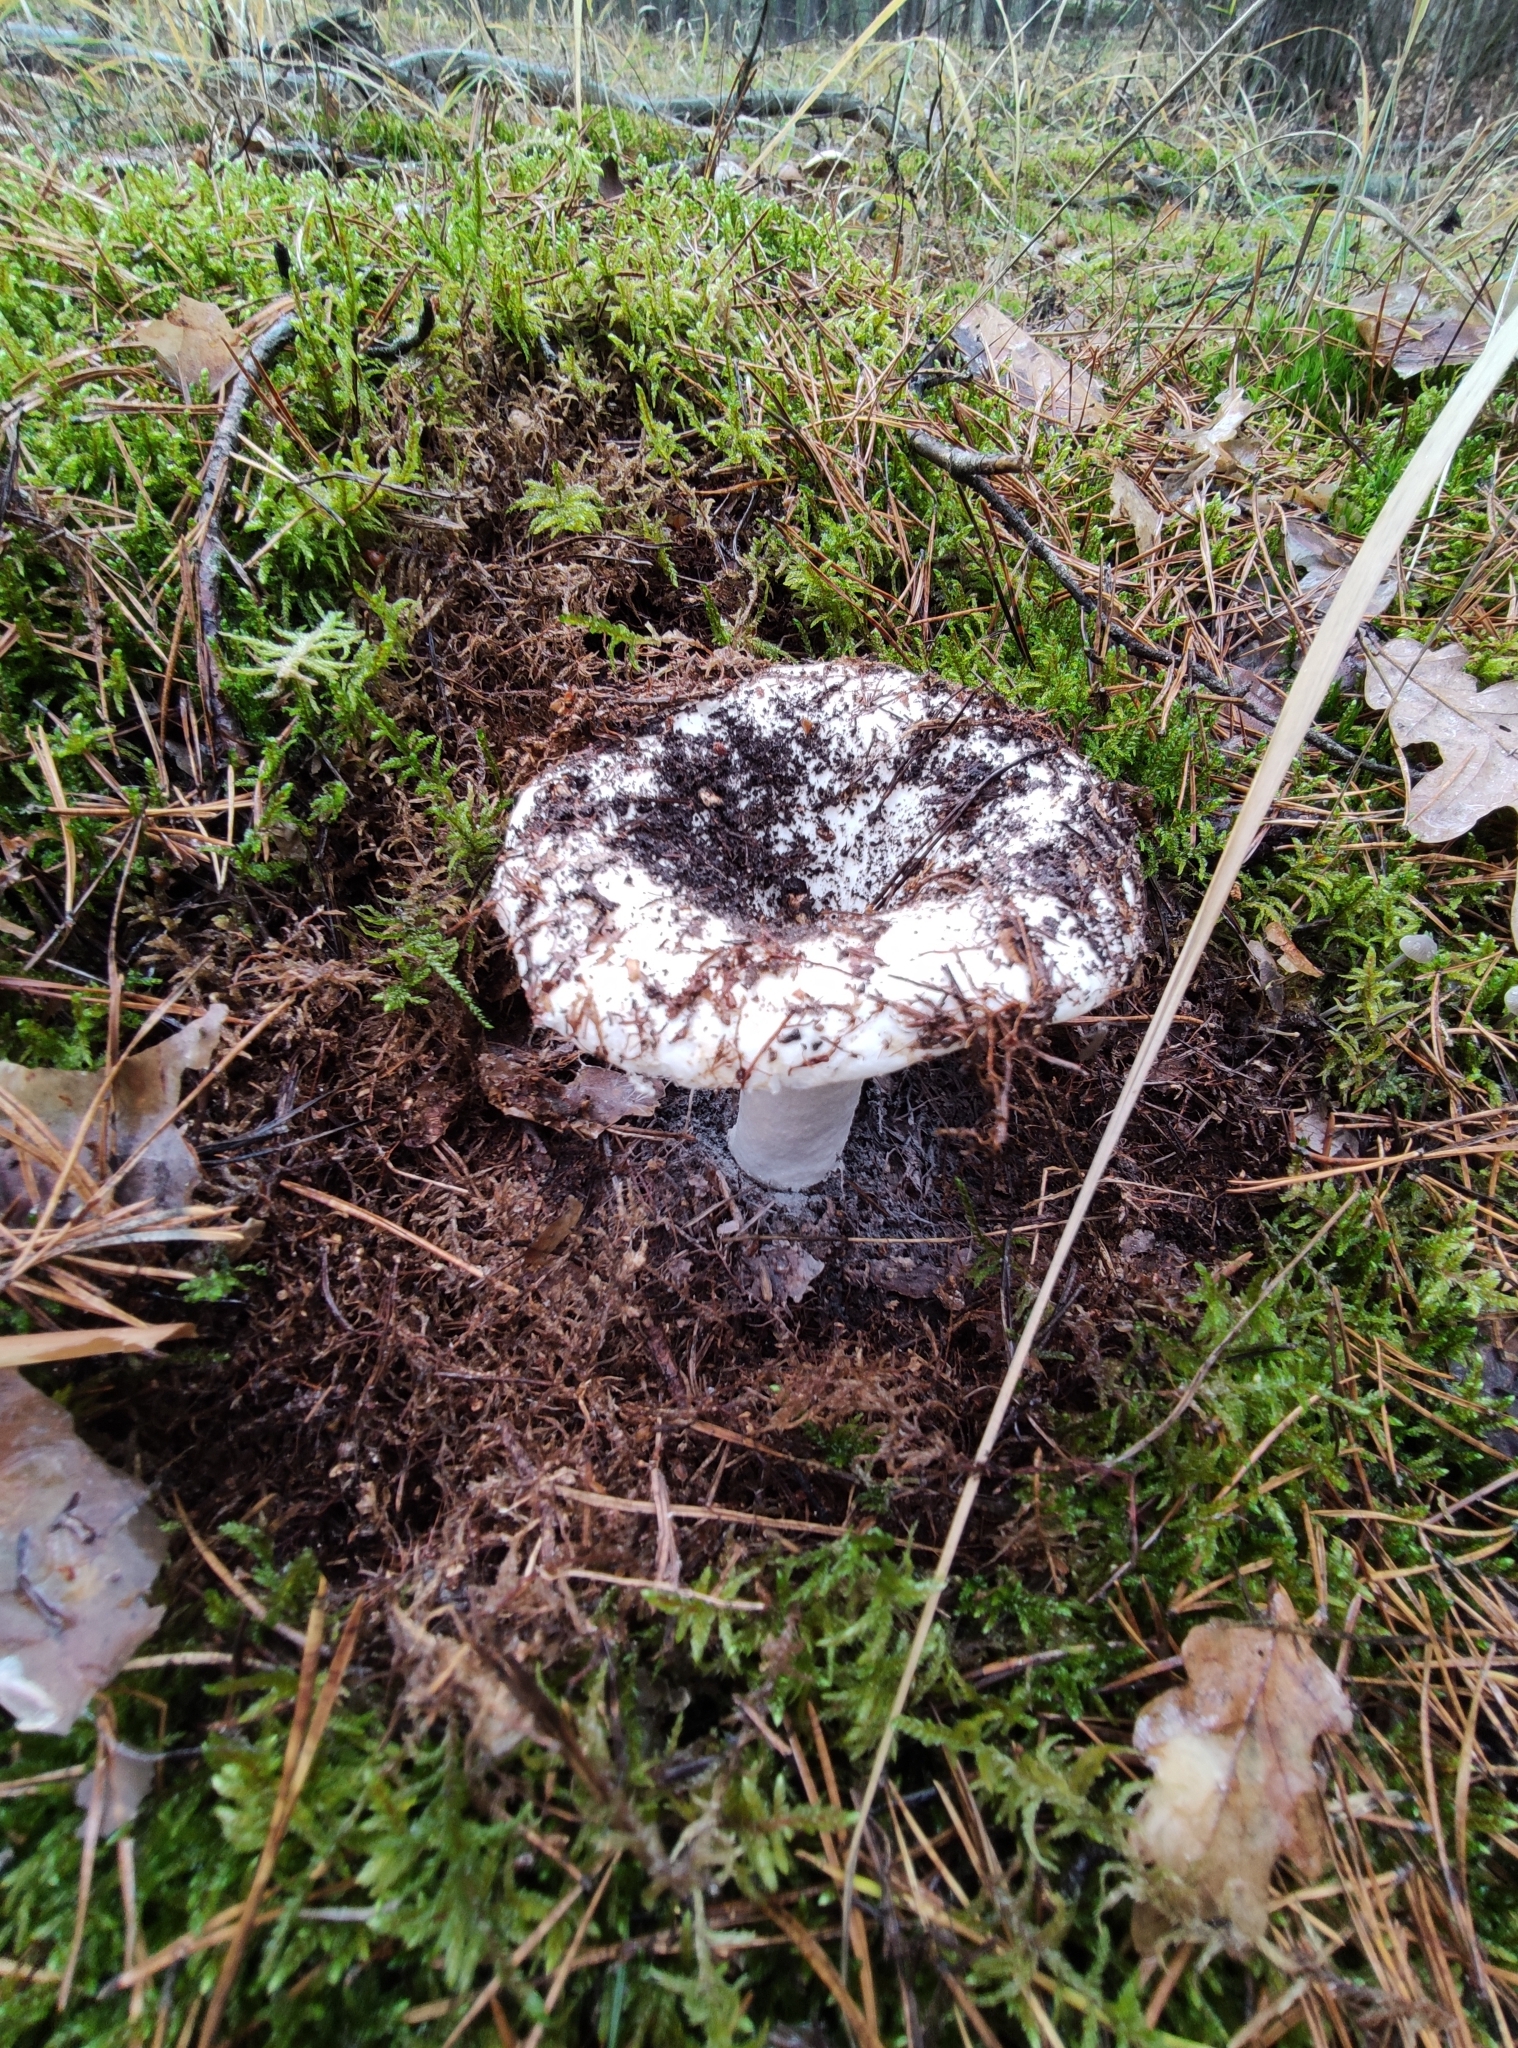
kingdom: Fungi
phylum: Basidiomycota
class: Agaricomycetes
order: Russulales
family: Russulaceae
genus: Russula
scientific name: Russula delica
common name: Milk white brittlegill
